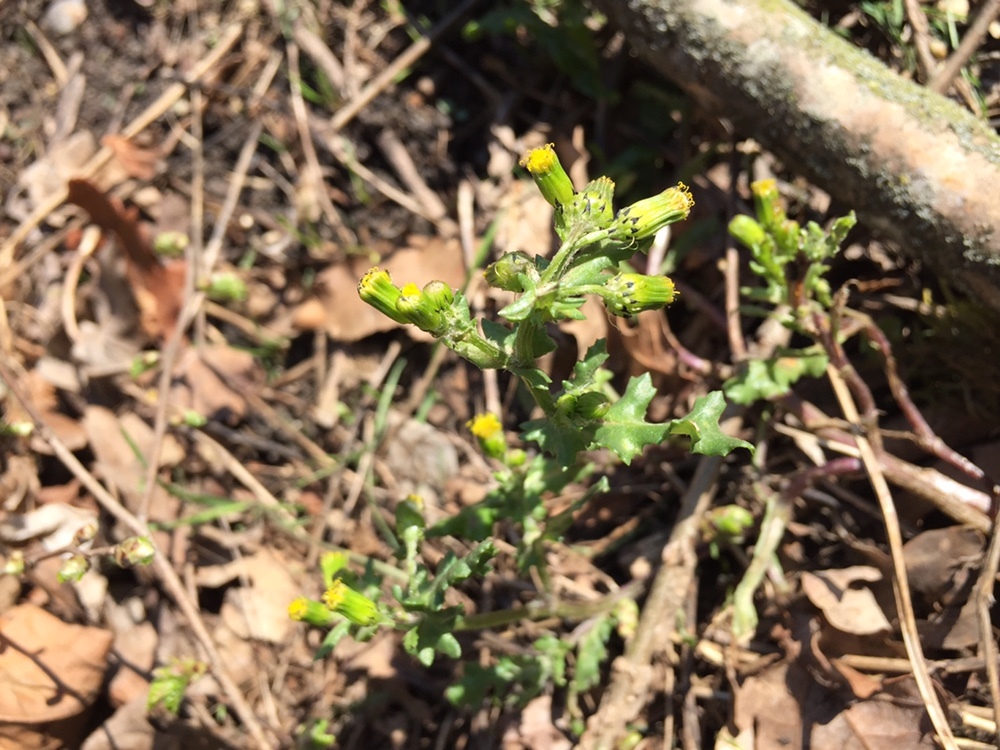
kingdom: Plantae
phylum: Tracheophyta
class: Magnoliopsida
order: Asterales
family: Asteraceae
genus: Senecio
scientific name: Senecio vulgaris
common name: Old-man-in-the-spring
